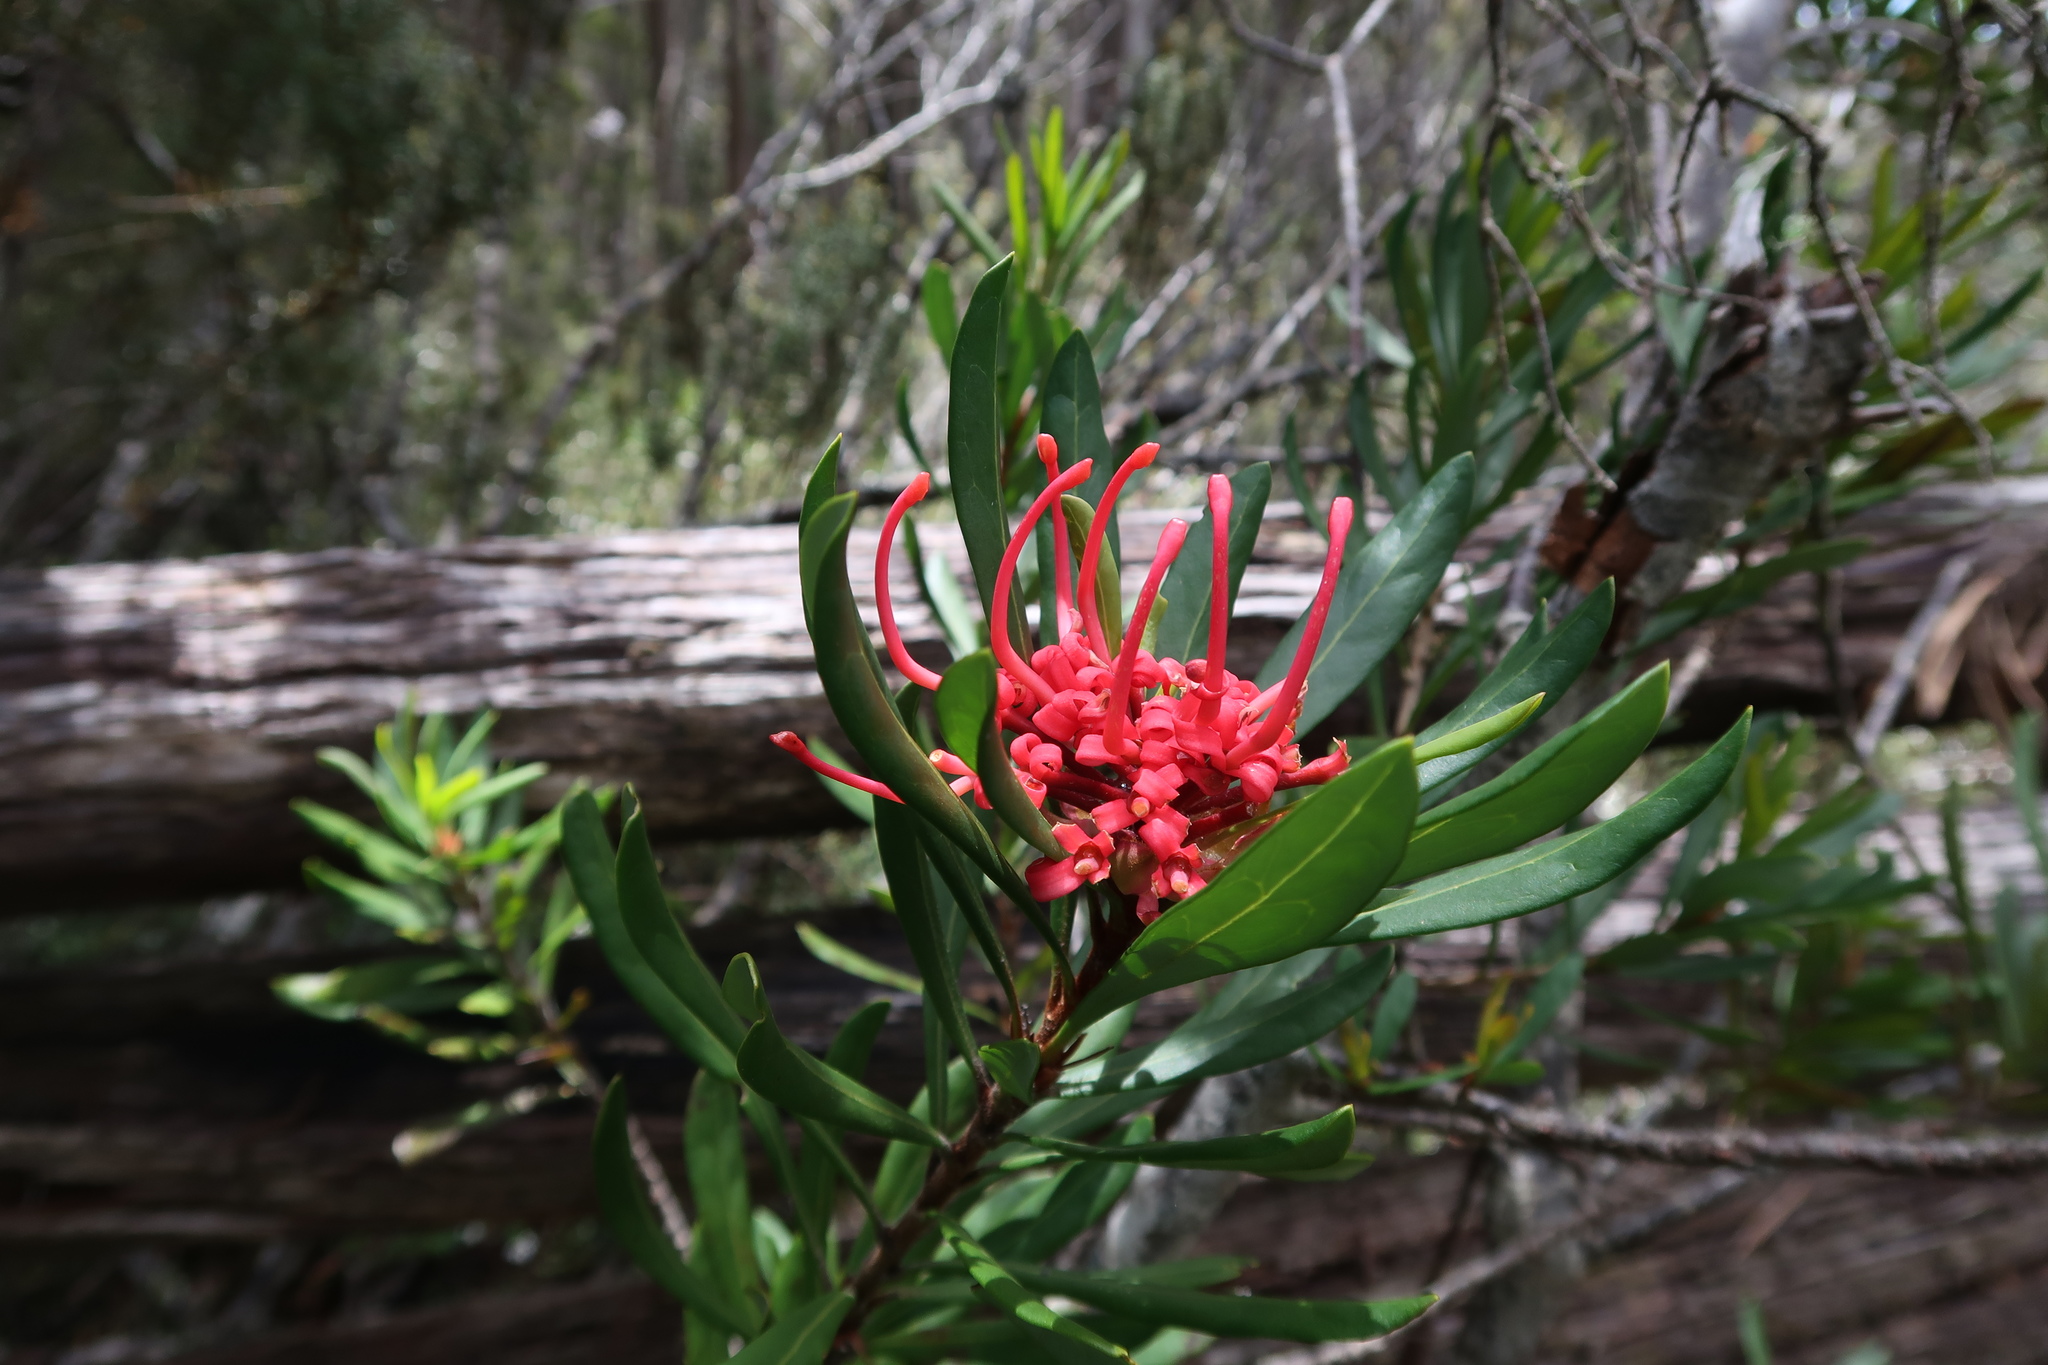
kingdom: Plantae
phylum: Tracheophyta
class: Magnoliopsida
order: Proteales
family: Proteaceae
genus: Telopea
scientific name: Telopea truncata
